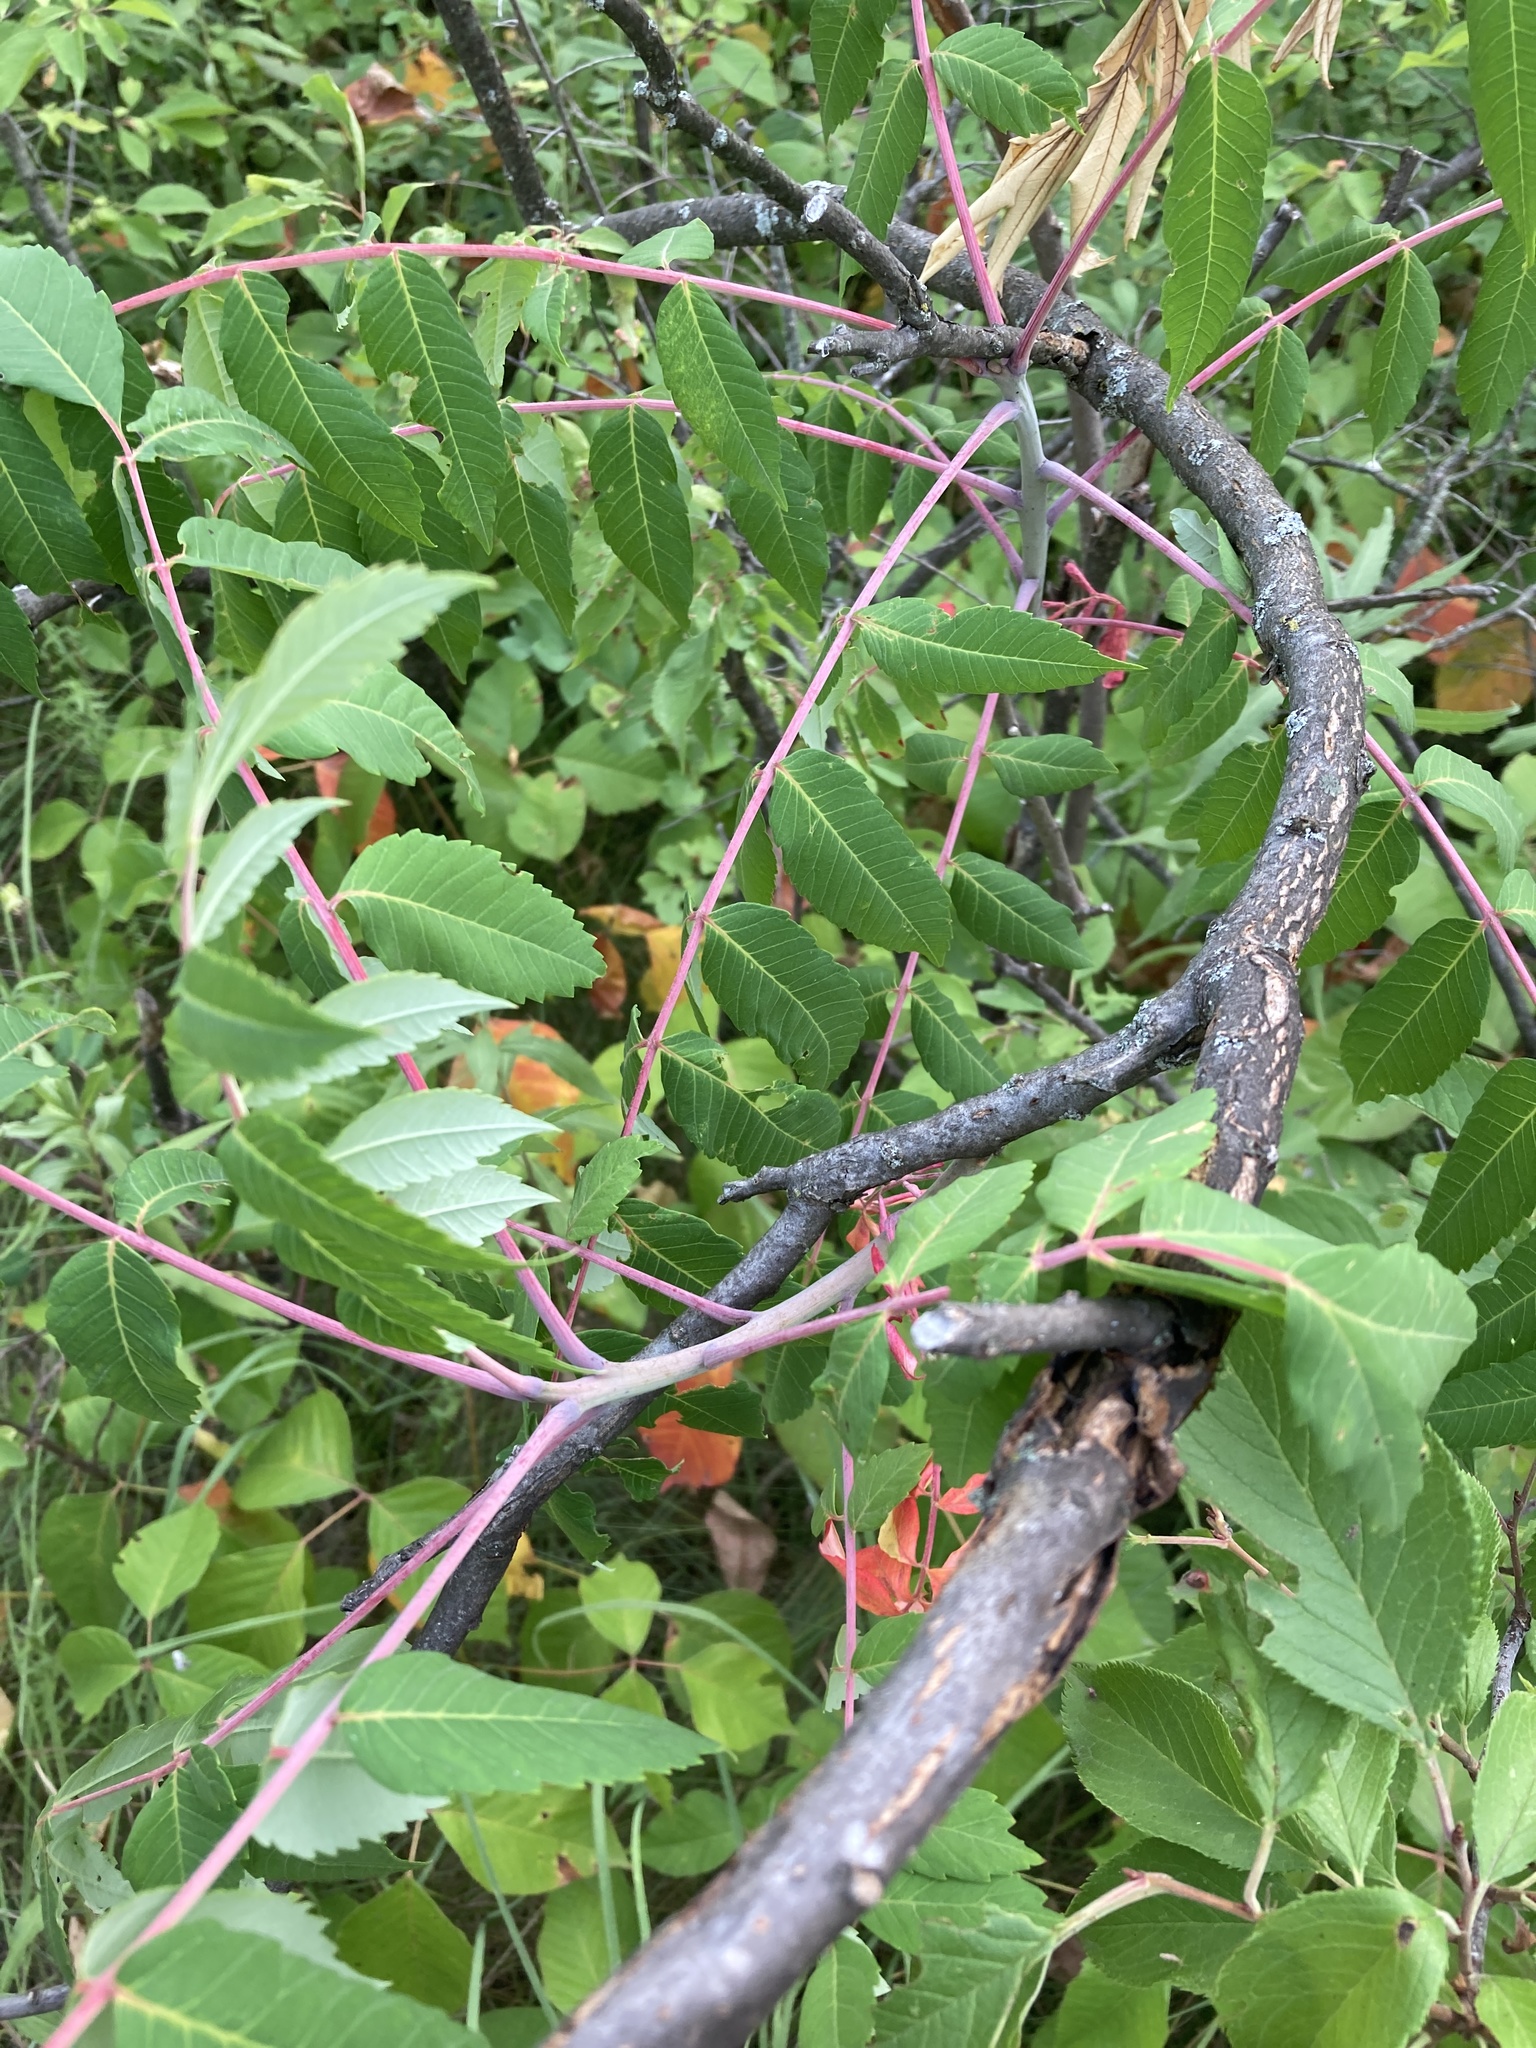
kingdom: Plantae
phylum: Tracheophyta
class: Magnoliopsida
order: Sapindales
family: Anacardiaceae
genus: Rhus
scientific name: Rhus glabra
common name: Scarlet sumac
